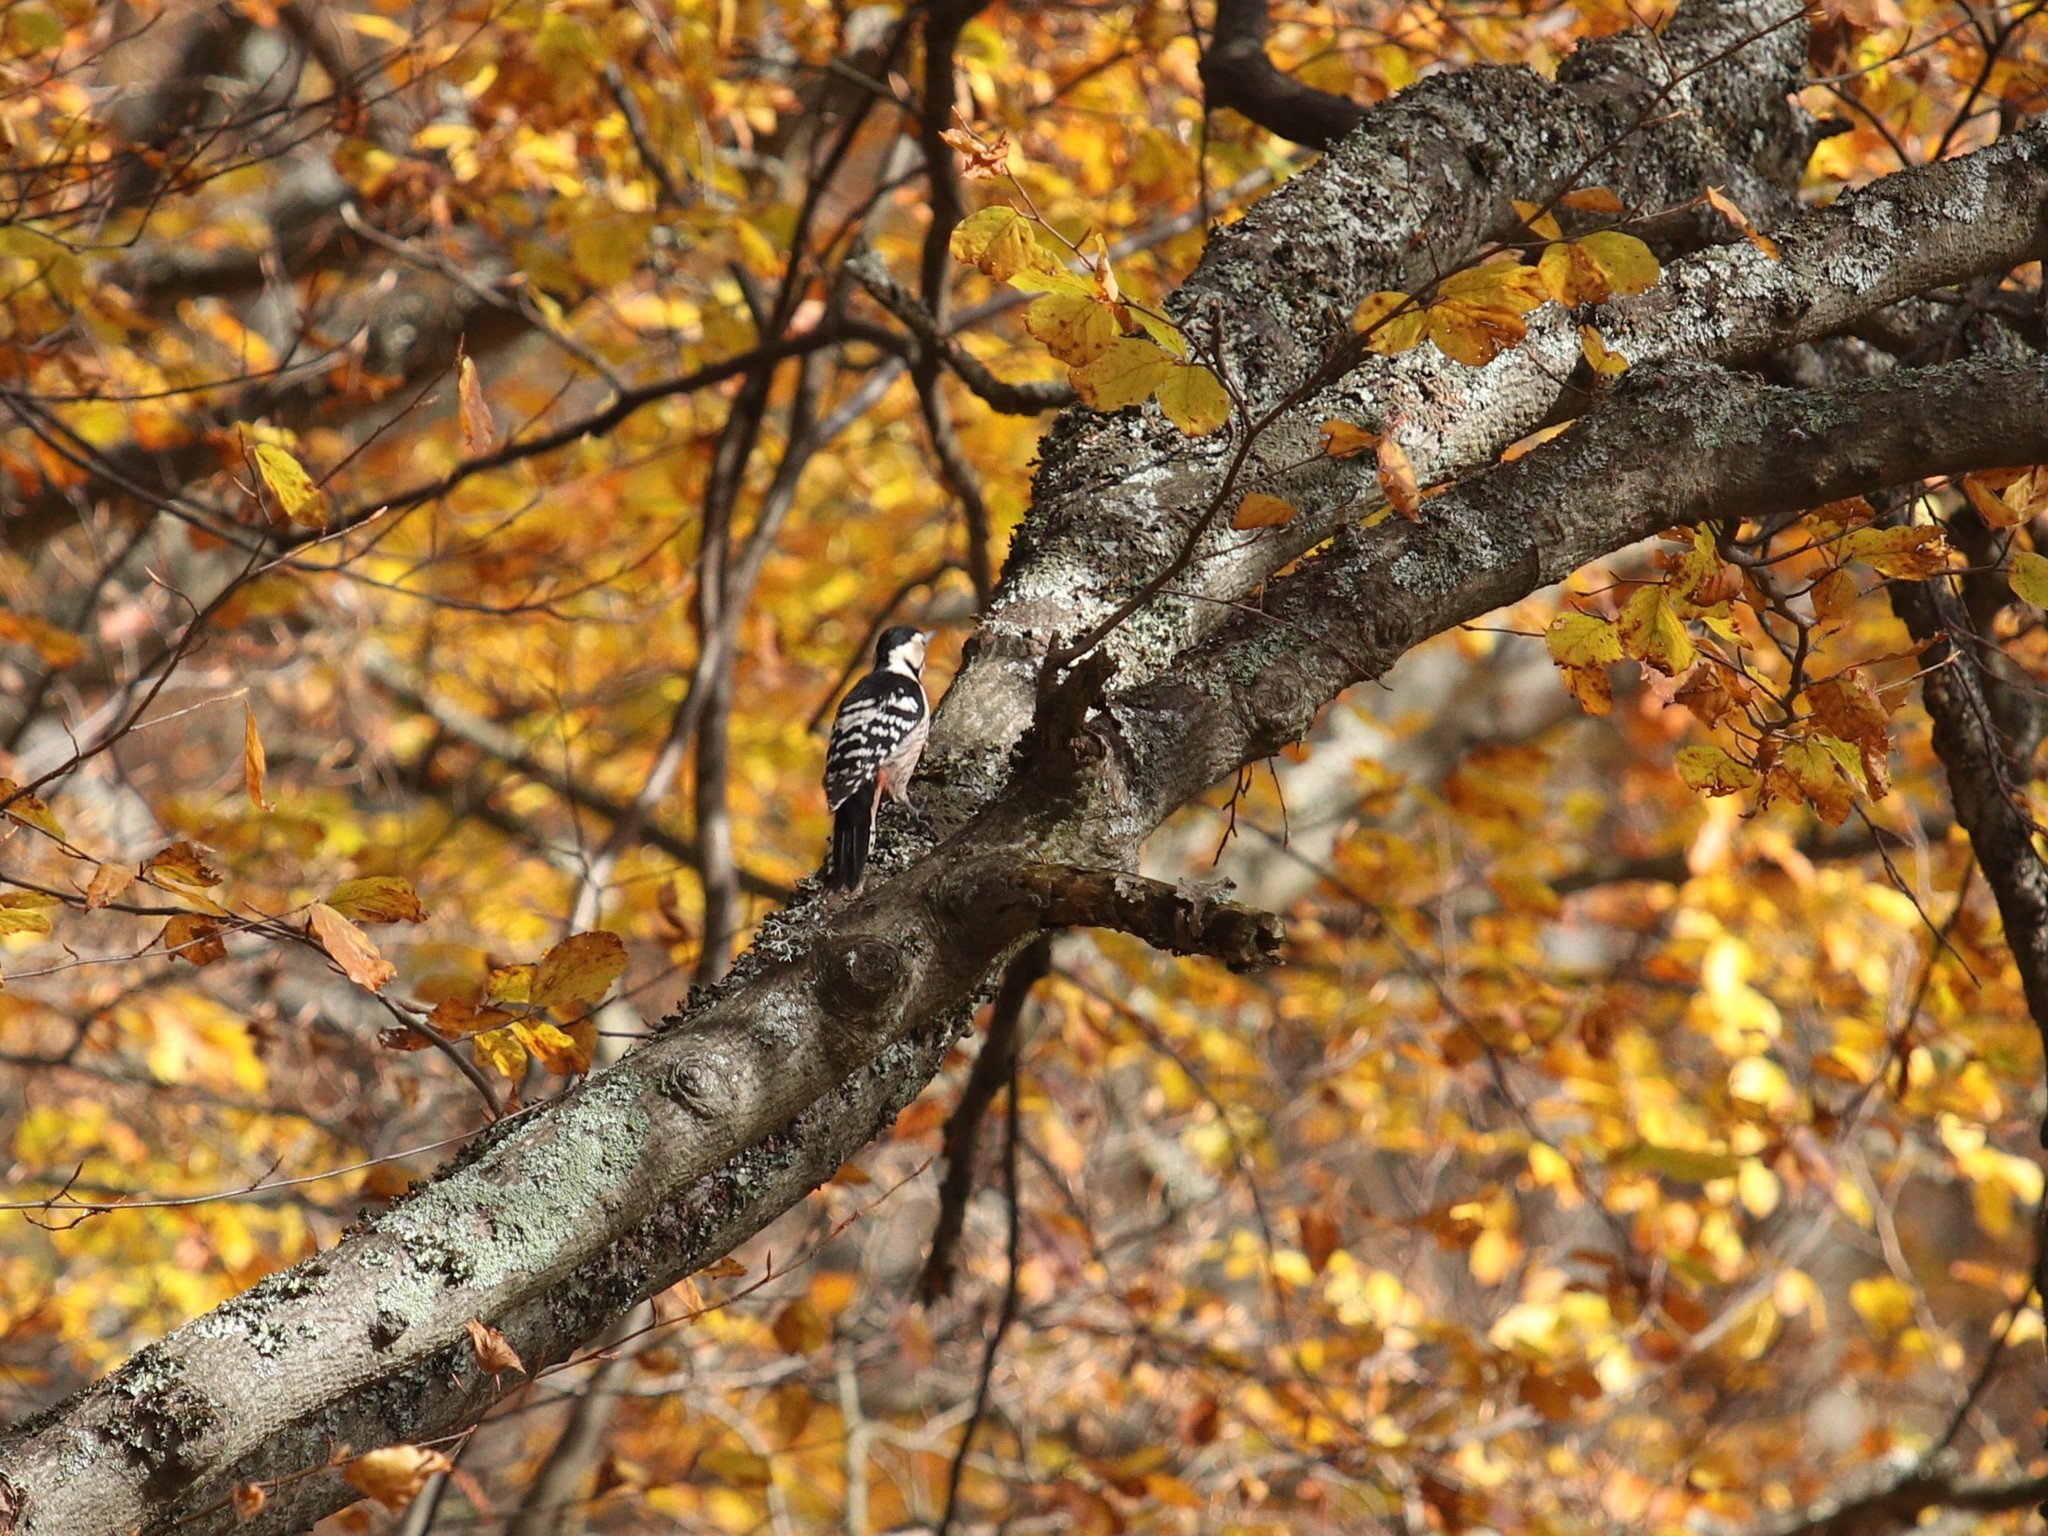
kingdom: Animalia
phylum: Chordata
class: Aves
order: Piciformes
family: Picidae
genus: Dendrocopos
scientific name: Dendrocopos leucotos
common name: White-backed woodpecker
